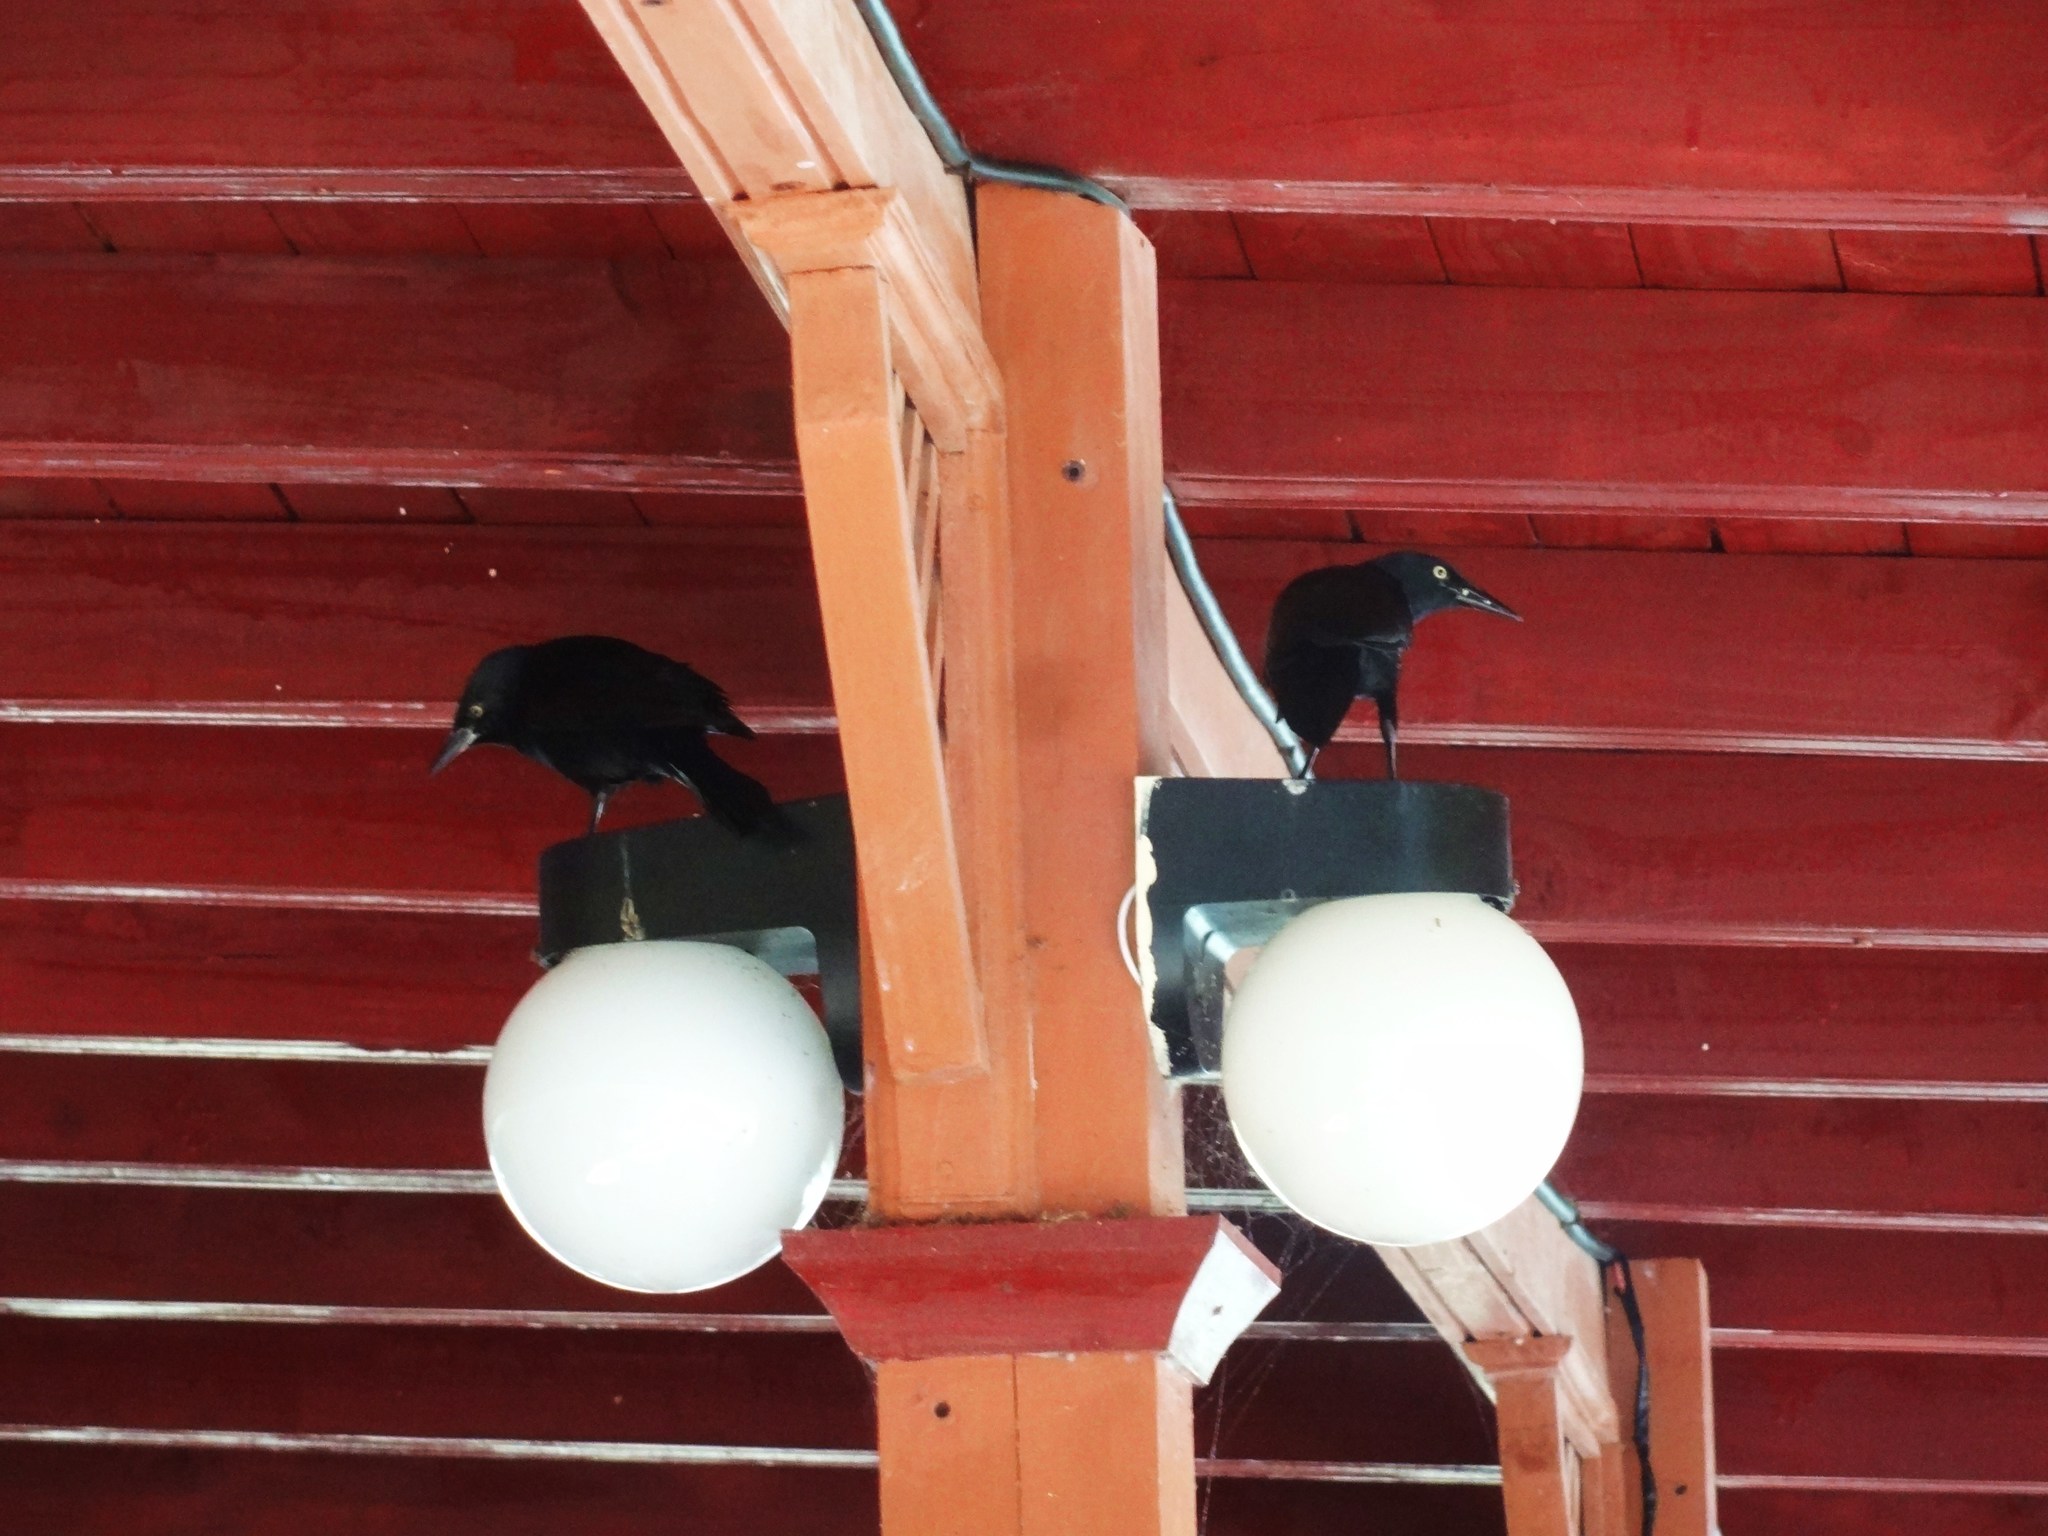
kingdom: Animalia
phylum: Chordata
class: Aves
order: Passeriformes
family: Icteridae
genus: Quiscalus
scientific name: Quiscalus niger
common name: Greater antillean grackle
